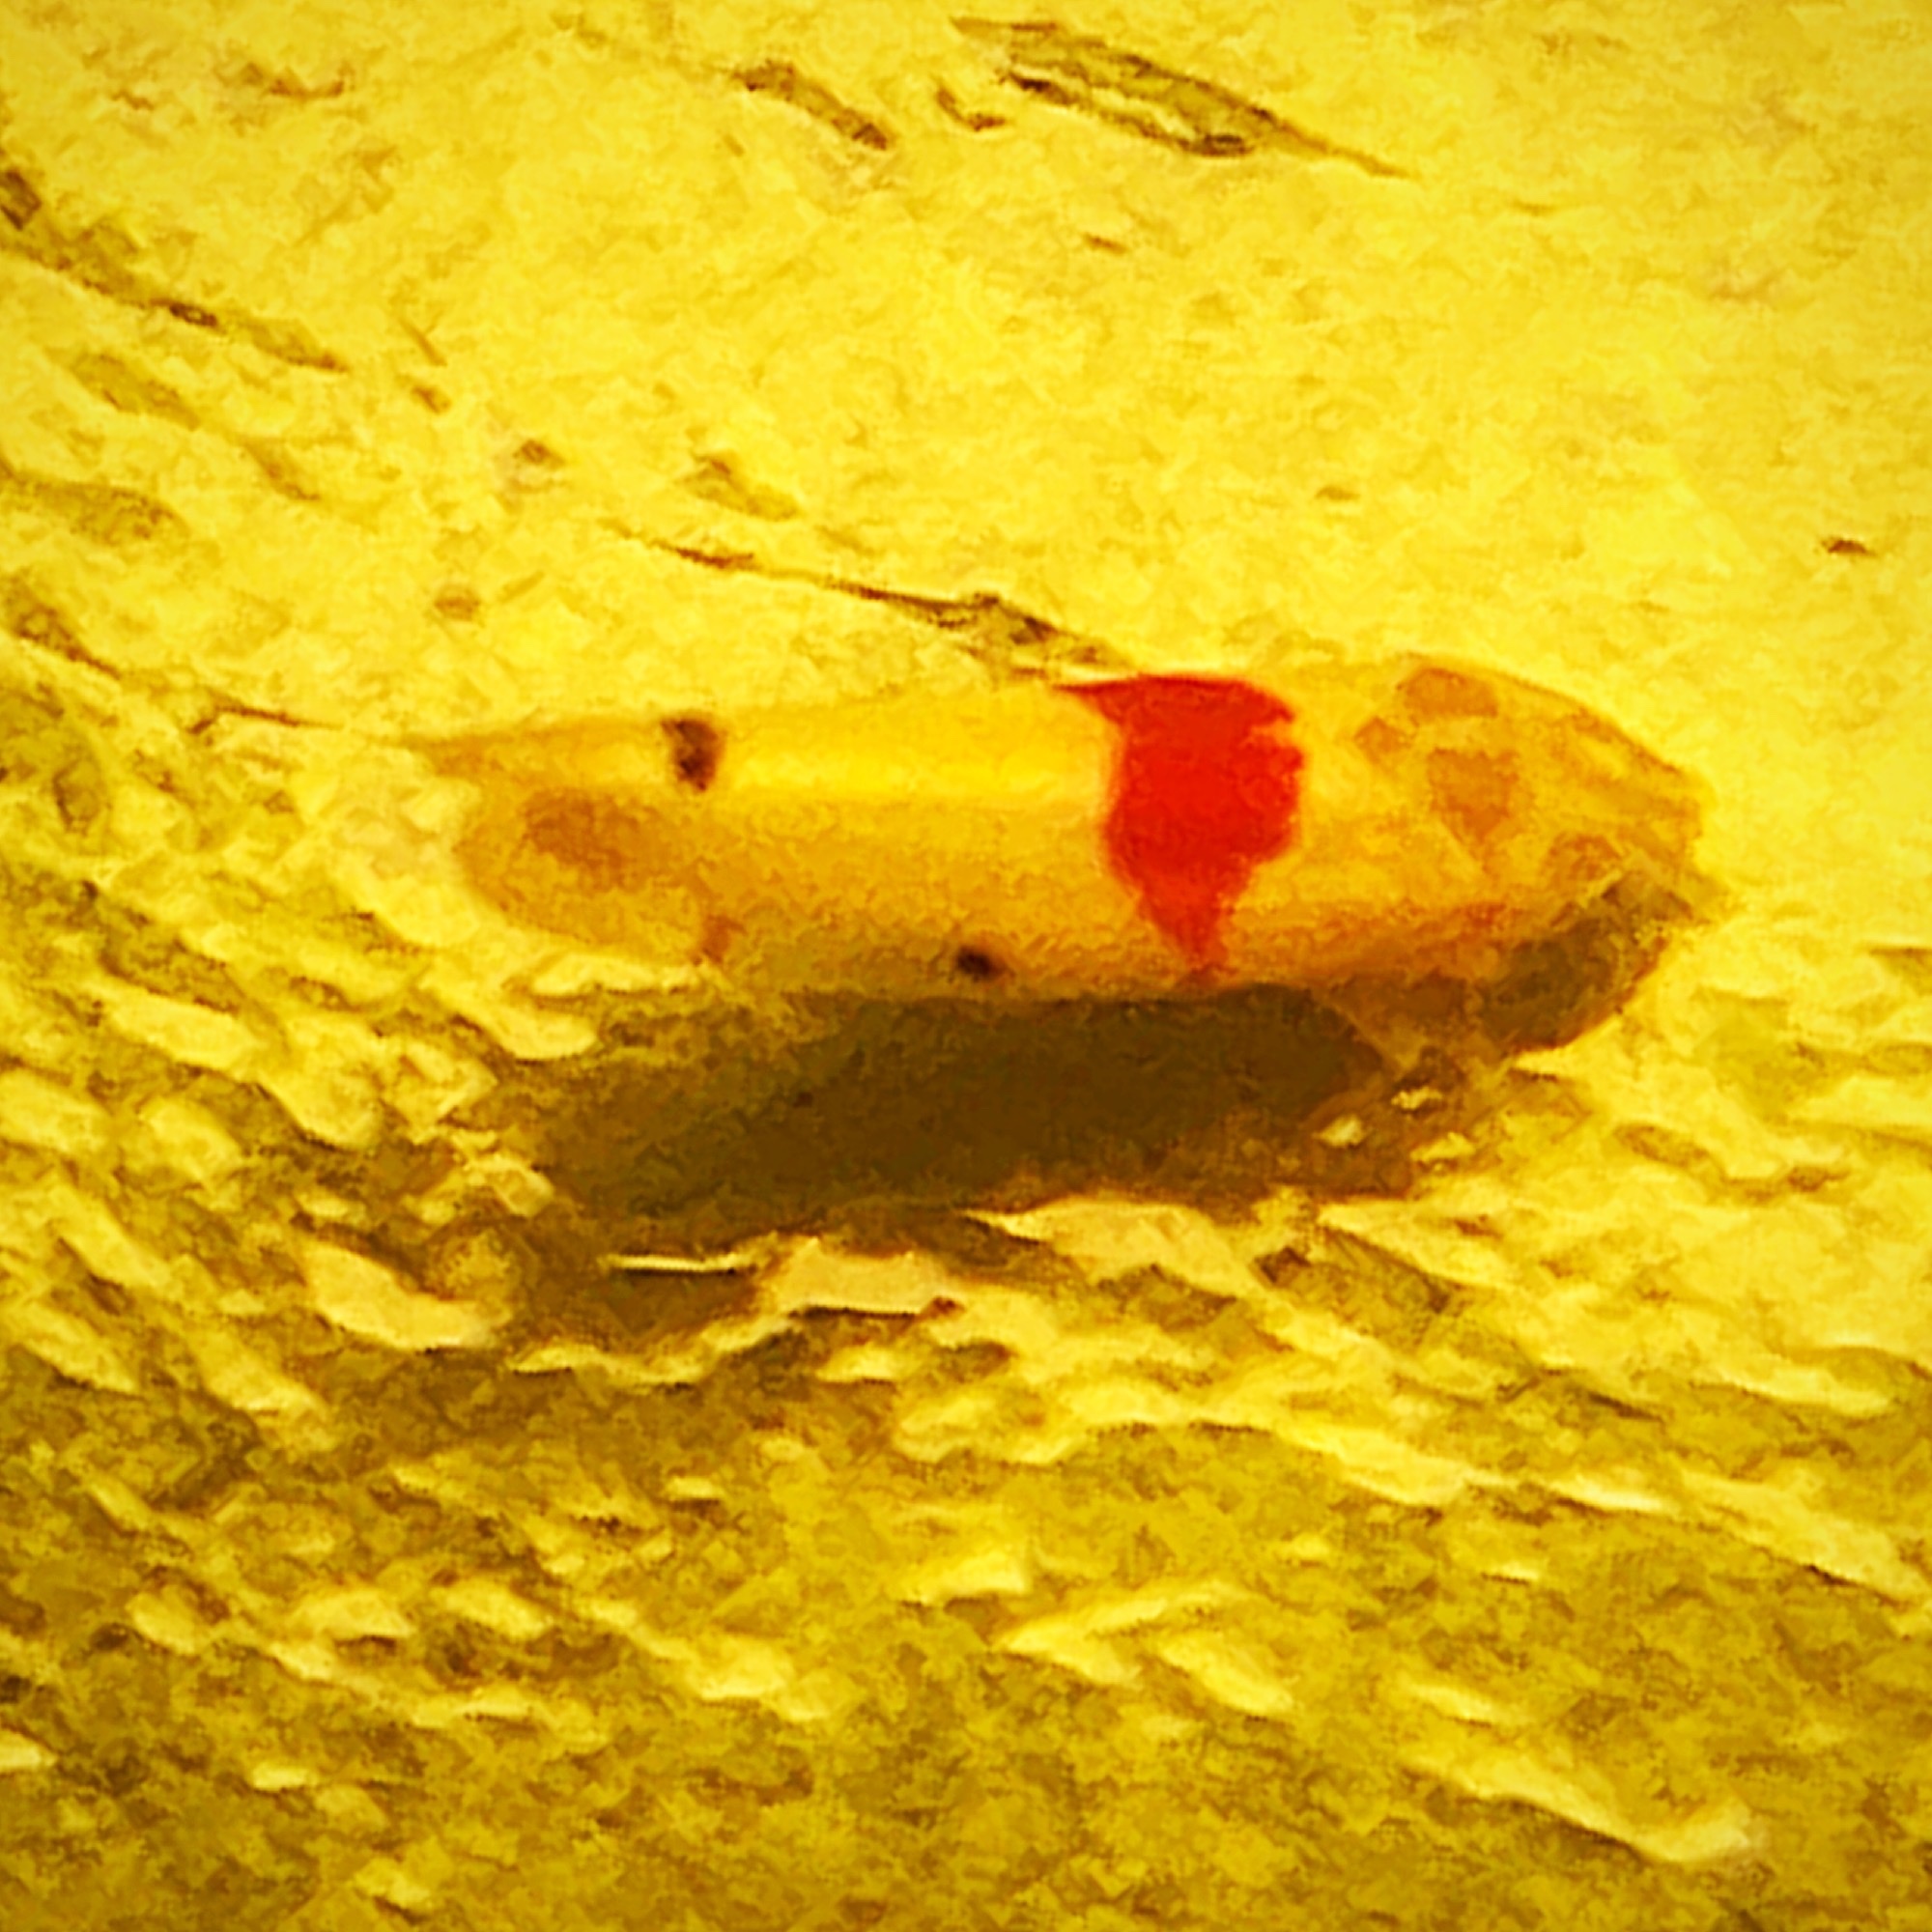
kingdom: Animalia
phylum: Arthropoda
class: Insecta
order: Hemiptera
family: Cicadellidae
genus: Eratoneura
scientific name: Eratoneura era
